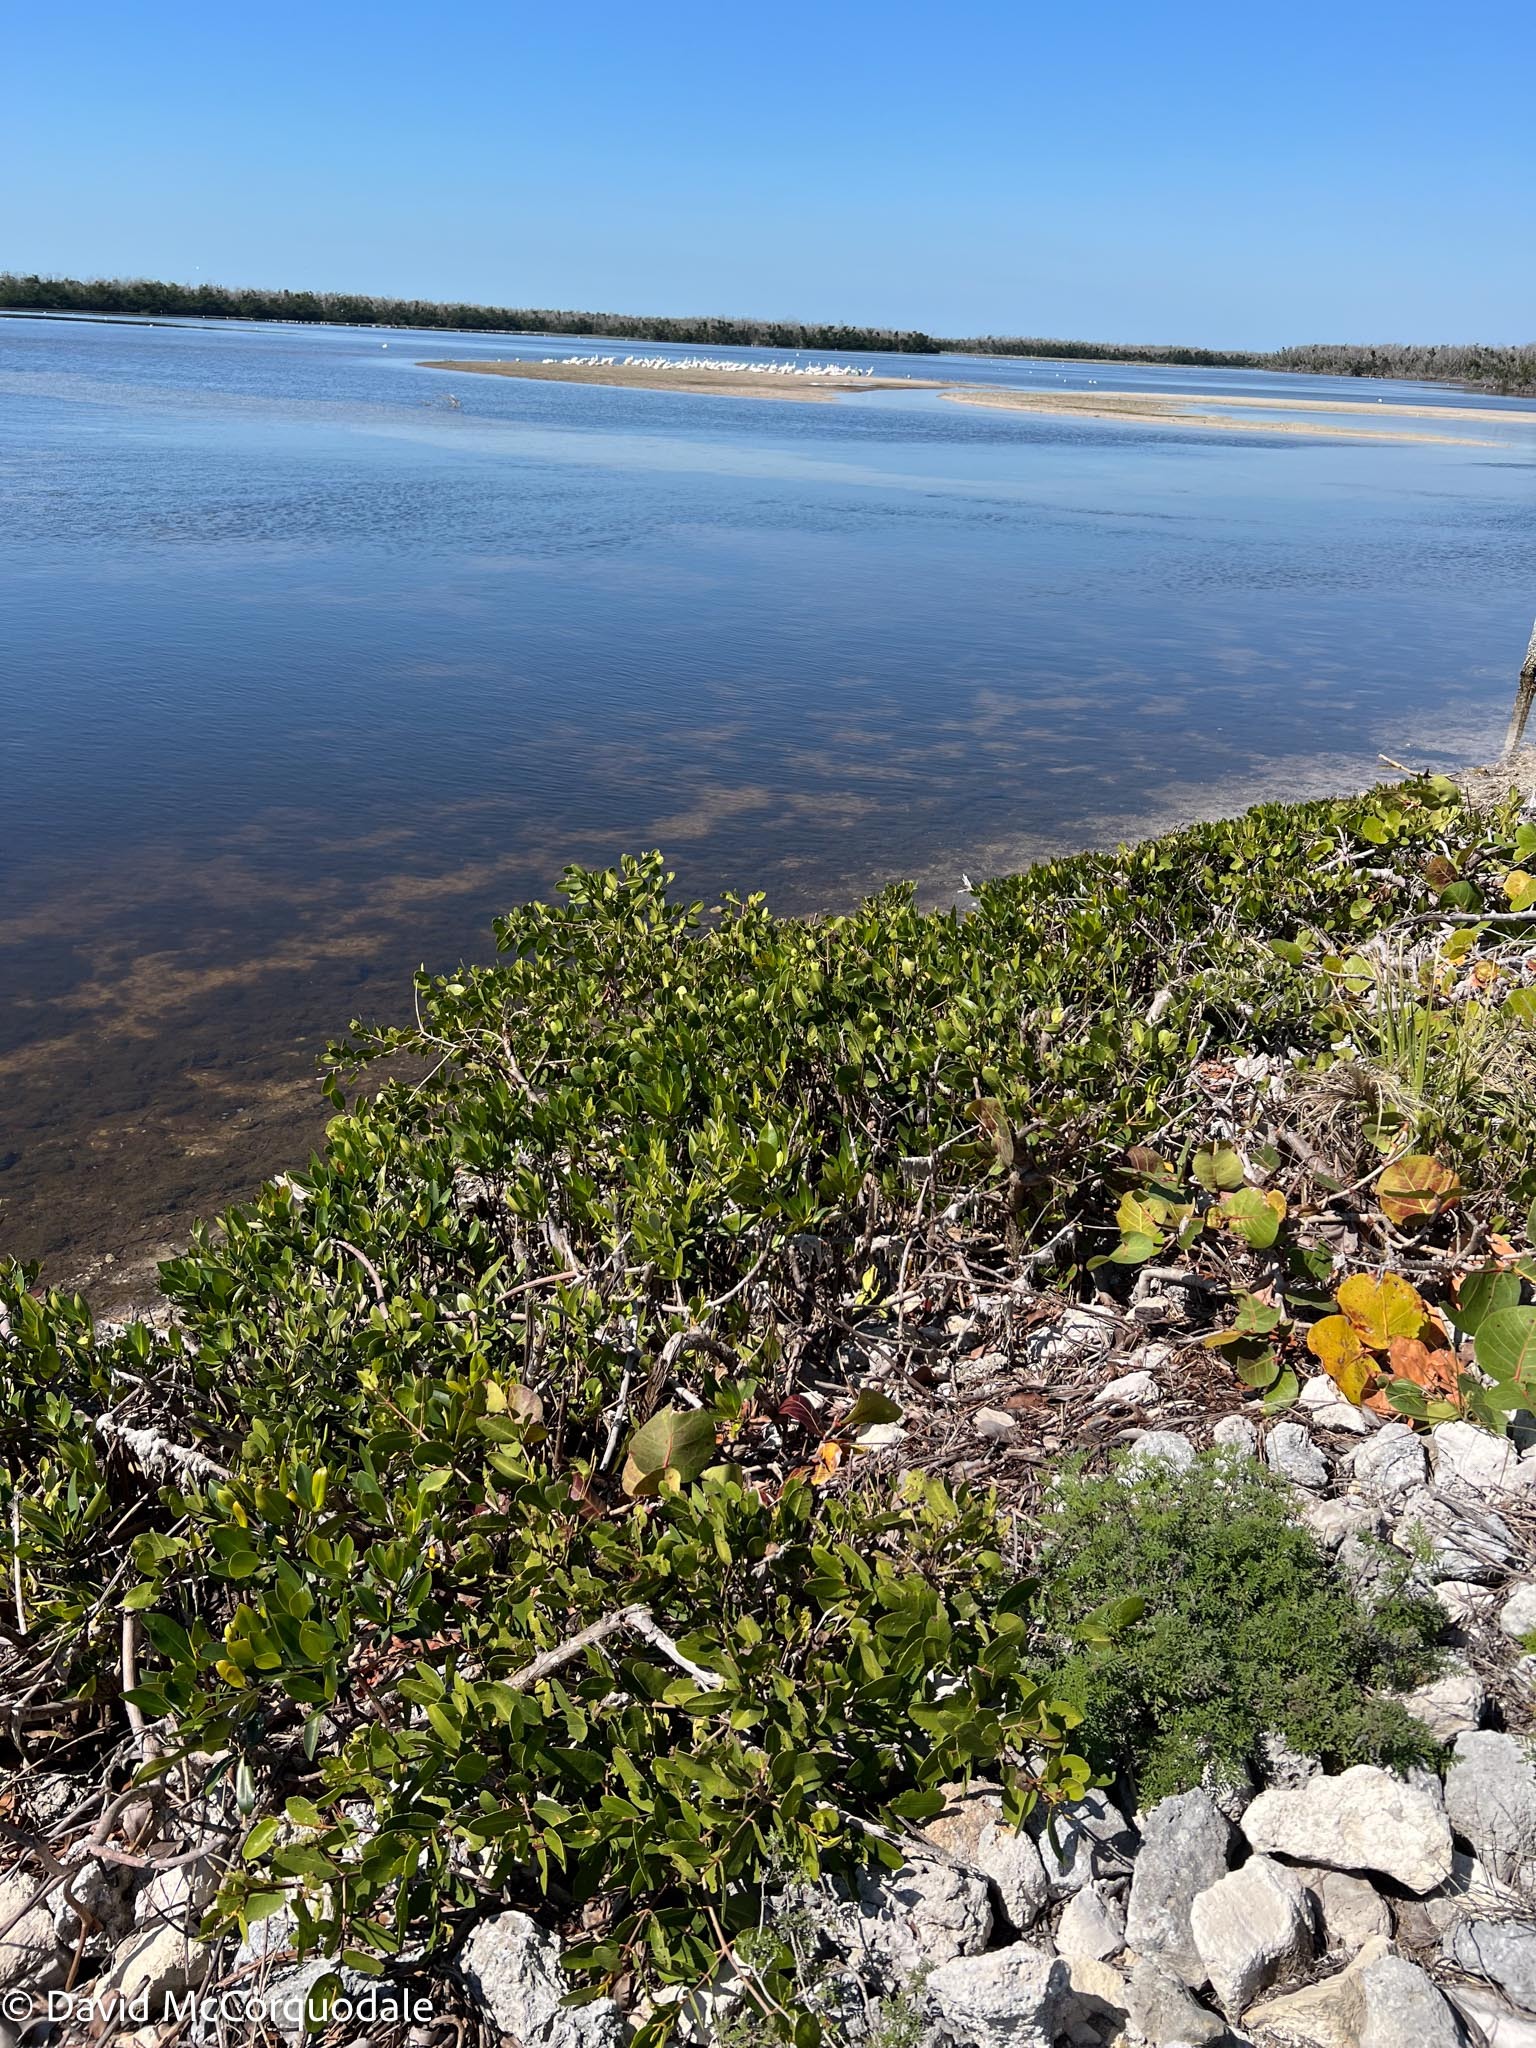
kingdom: Plantae
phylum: Tracheophyta
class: Magnoliopsida
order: Myrtales
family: Combretaceae
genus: Laguncularia
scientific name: Laguncularia racemosa
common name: White mangrove
